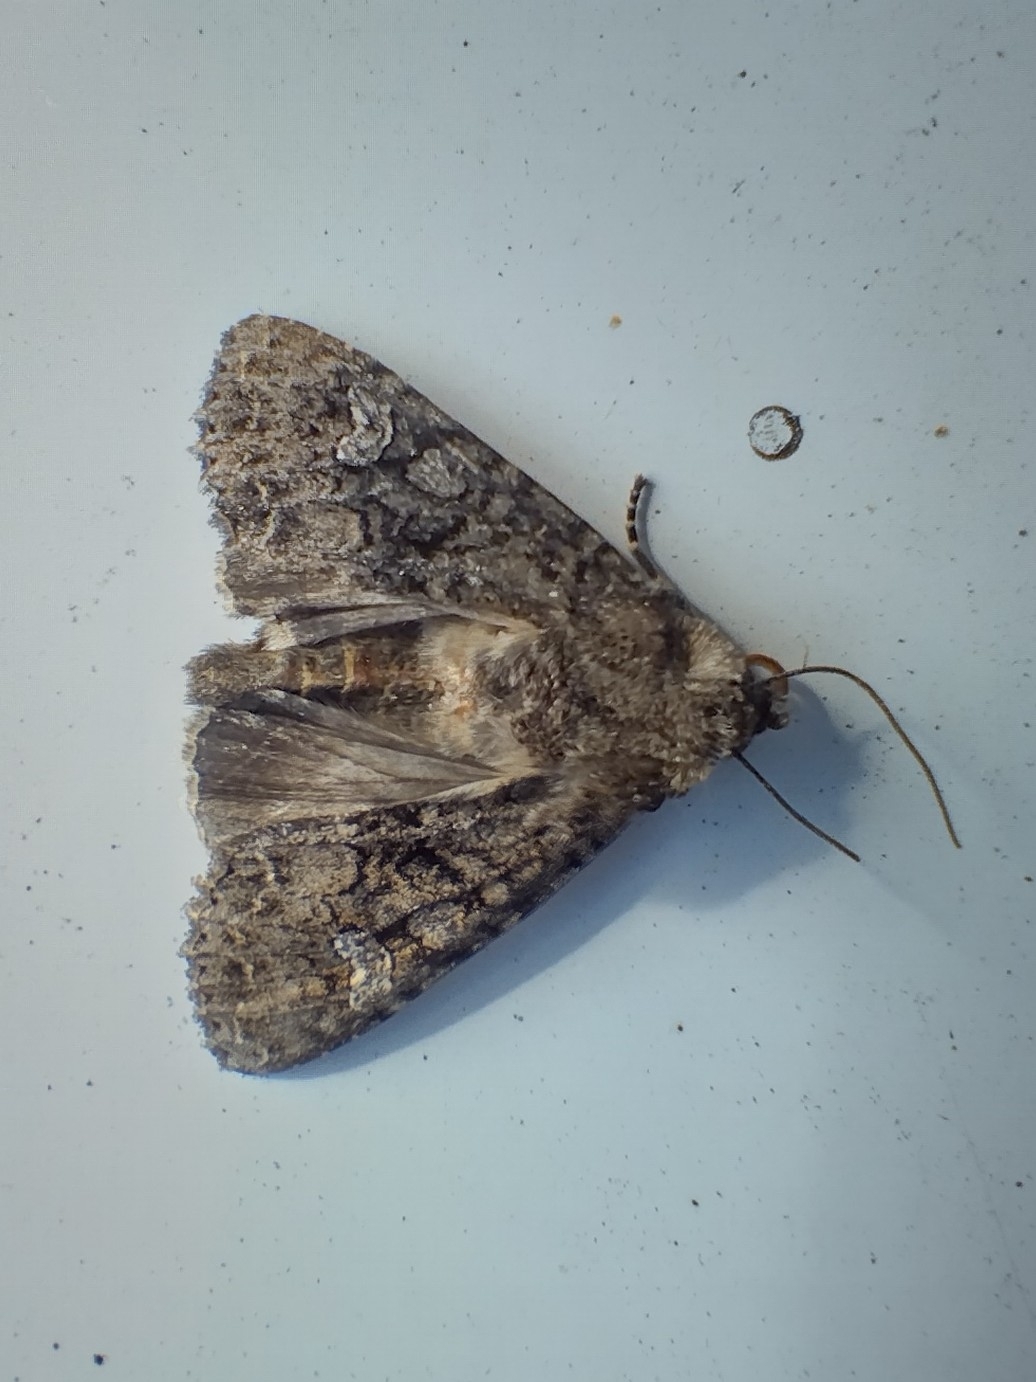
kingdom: Animalia
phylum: Arthropoda
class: Insecta
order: Lepidoptera
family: Noctuidae
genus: Mamestra
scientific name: Mamestra brassicae
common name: Cabbage moth
